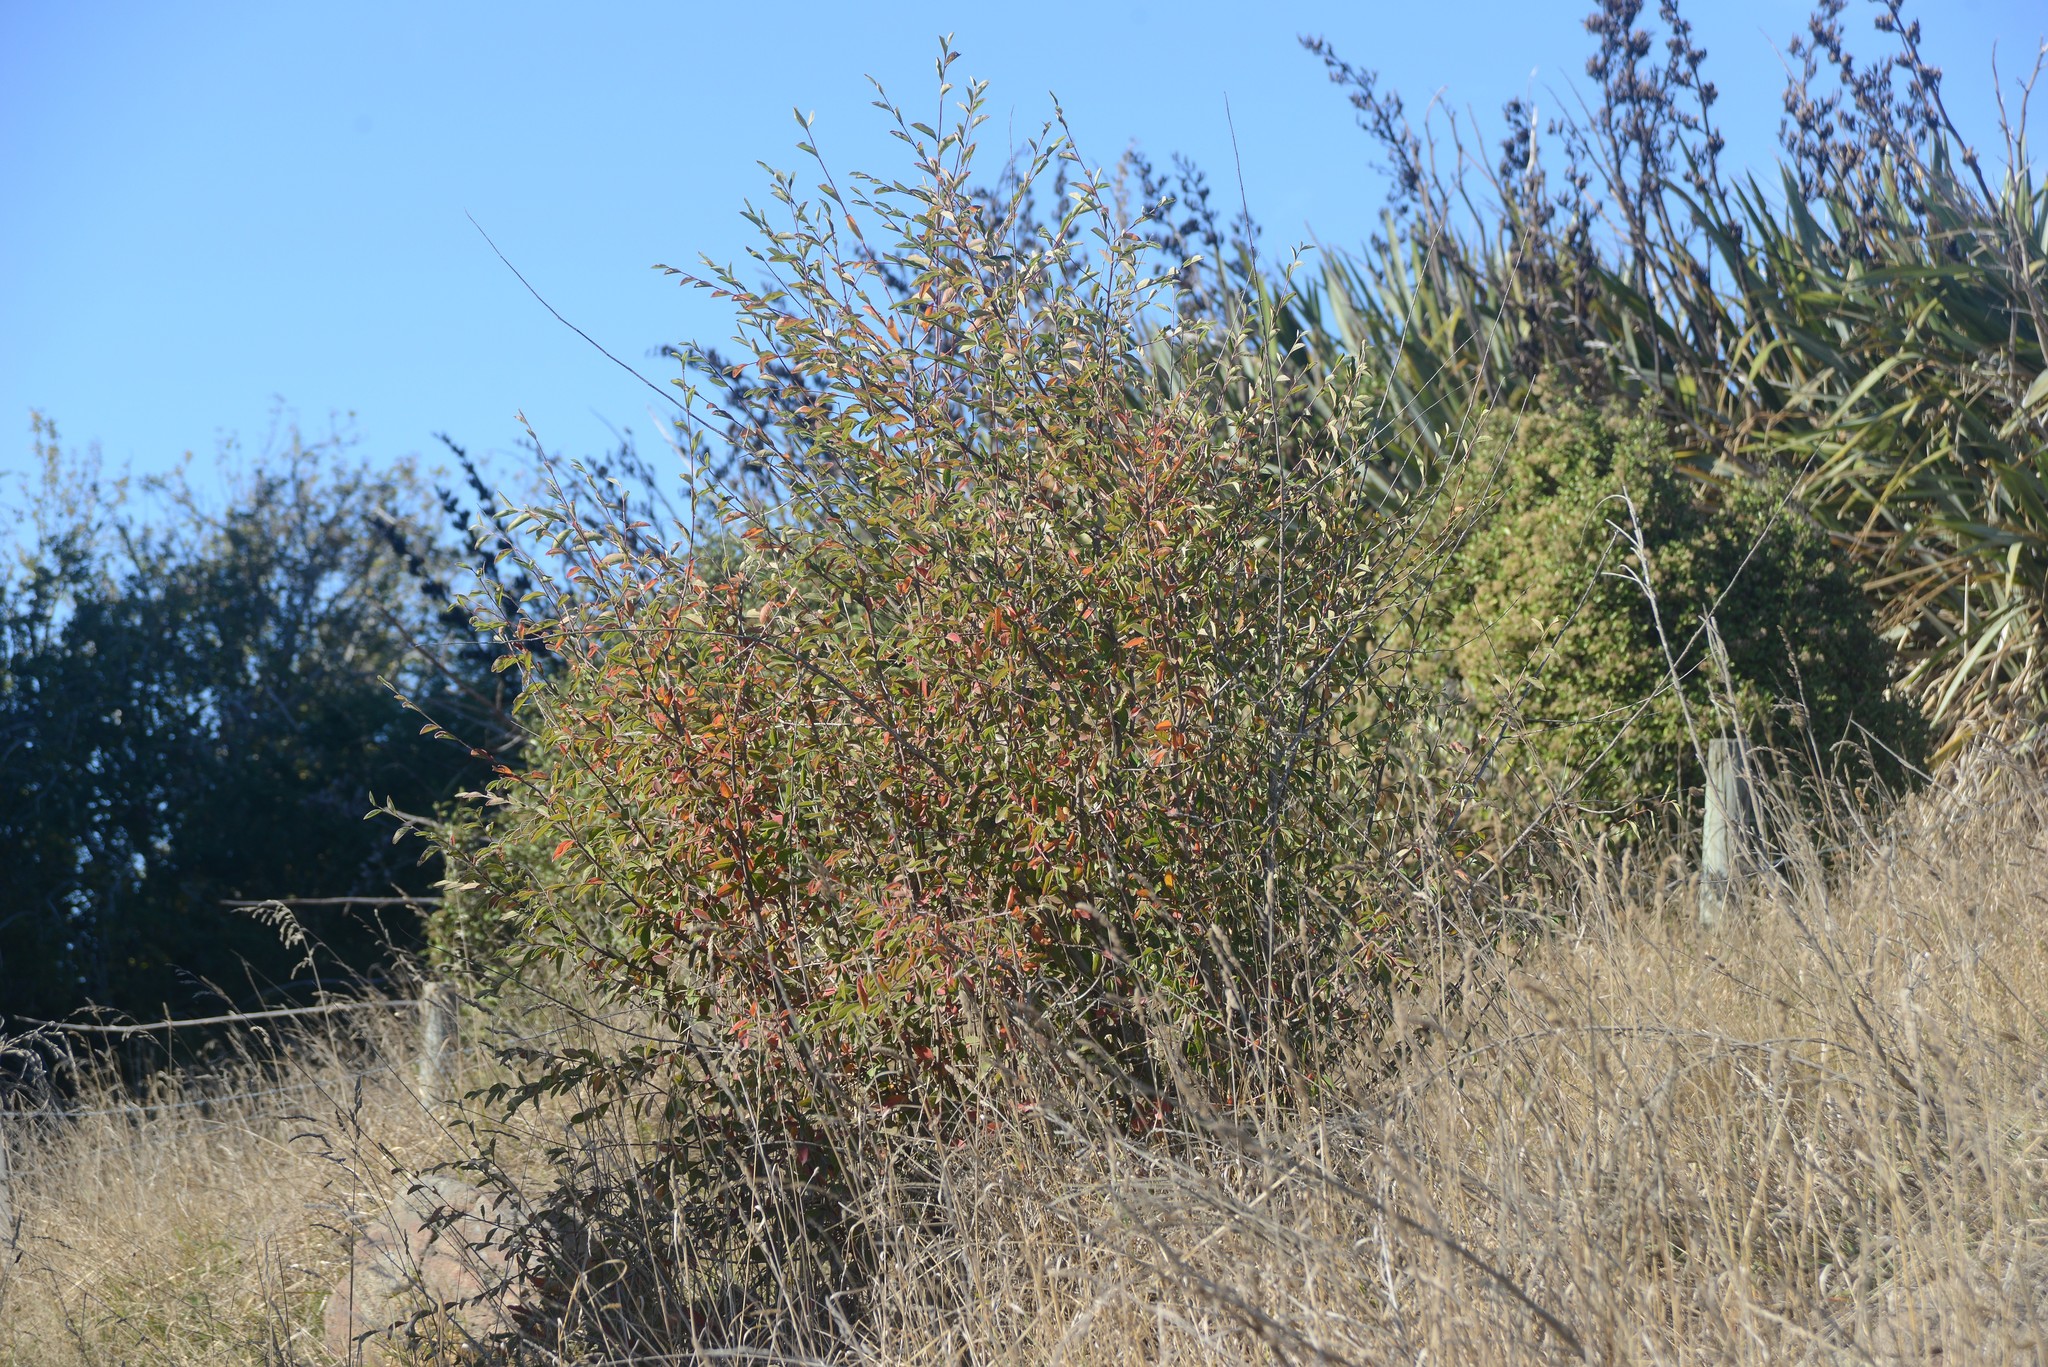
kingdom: Plantae
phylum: Tracheophyta
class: Magnoliopsida
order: Rosales
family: Rosaceae
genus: Cotoneaster
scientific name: Cotoneaster
